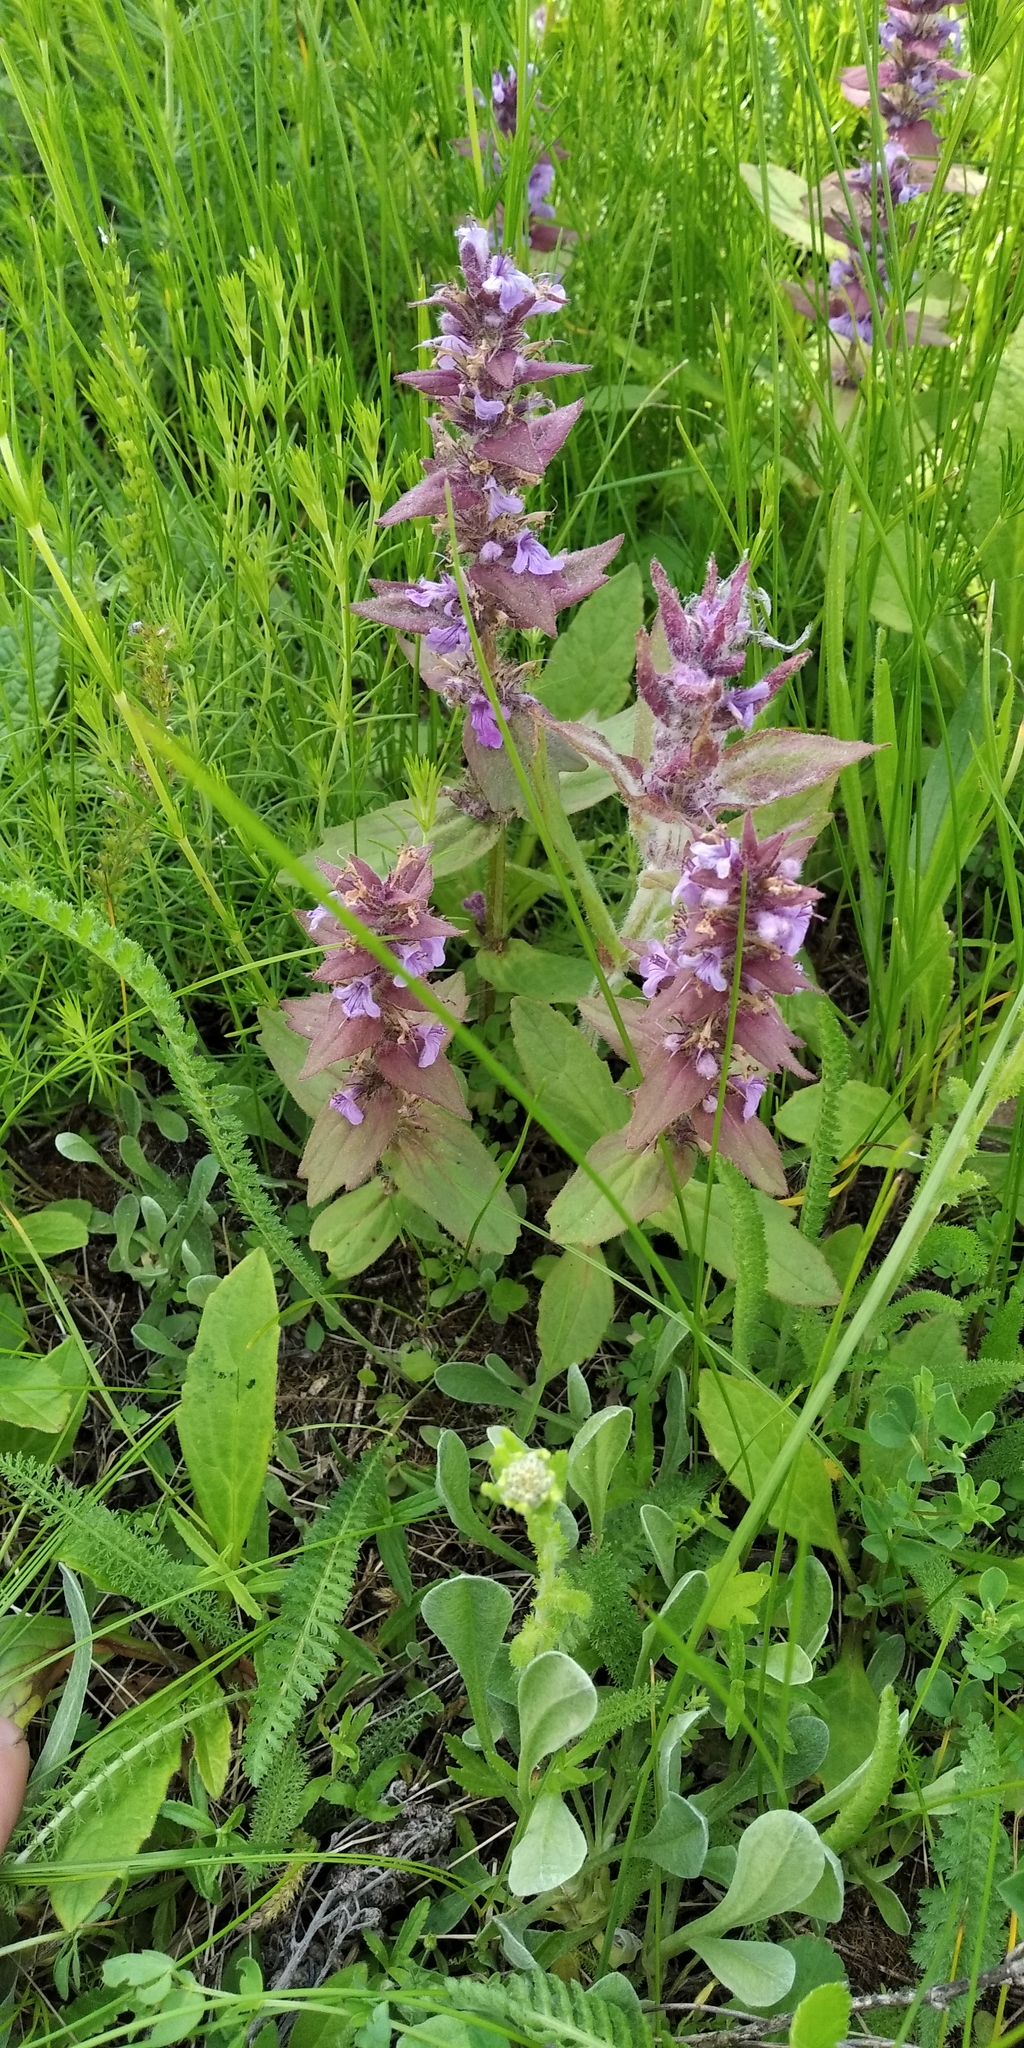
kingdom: Plantae
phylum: Tracheophyta
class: Magnoliopsida
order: Lamiales
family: Lamiaceae
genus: Ajuga
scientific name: Ajuga genevensis
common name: Blue bugle
